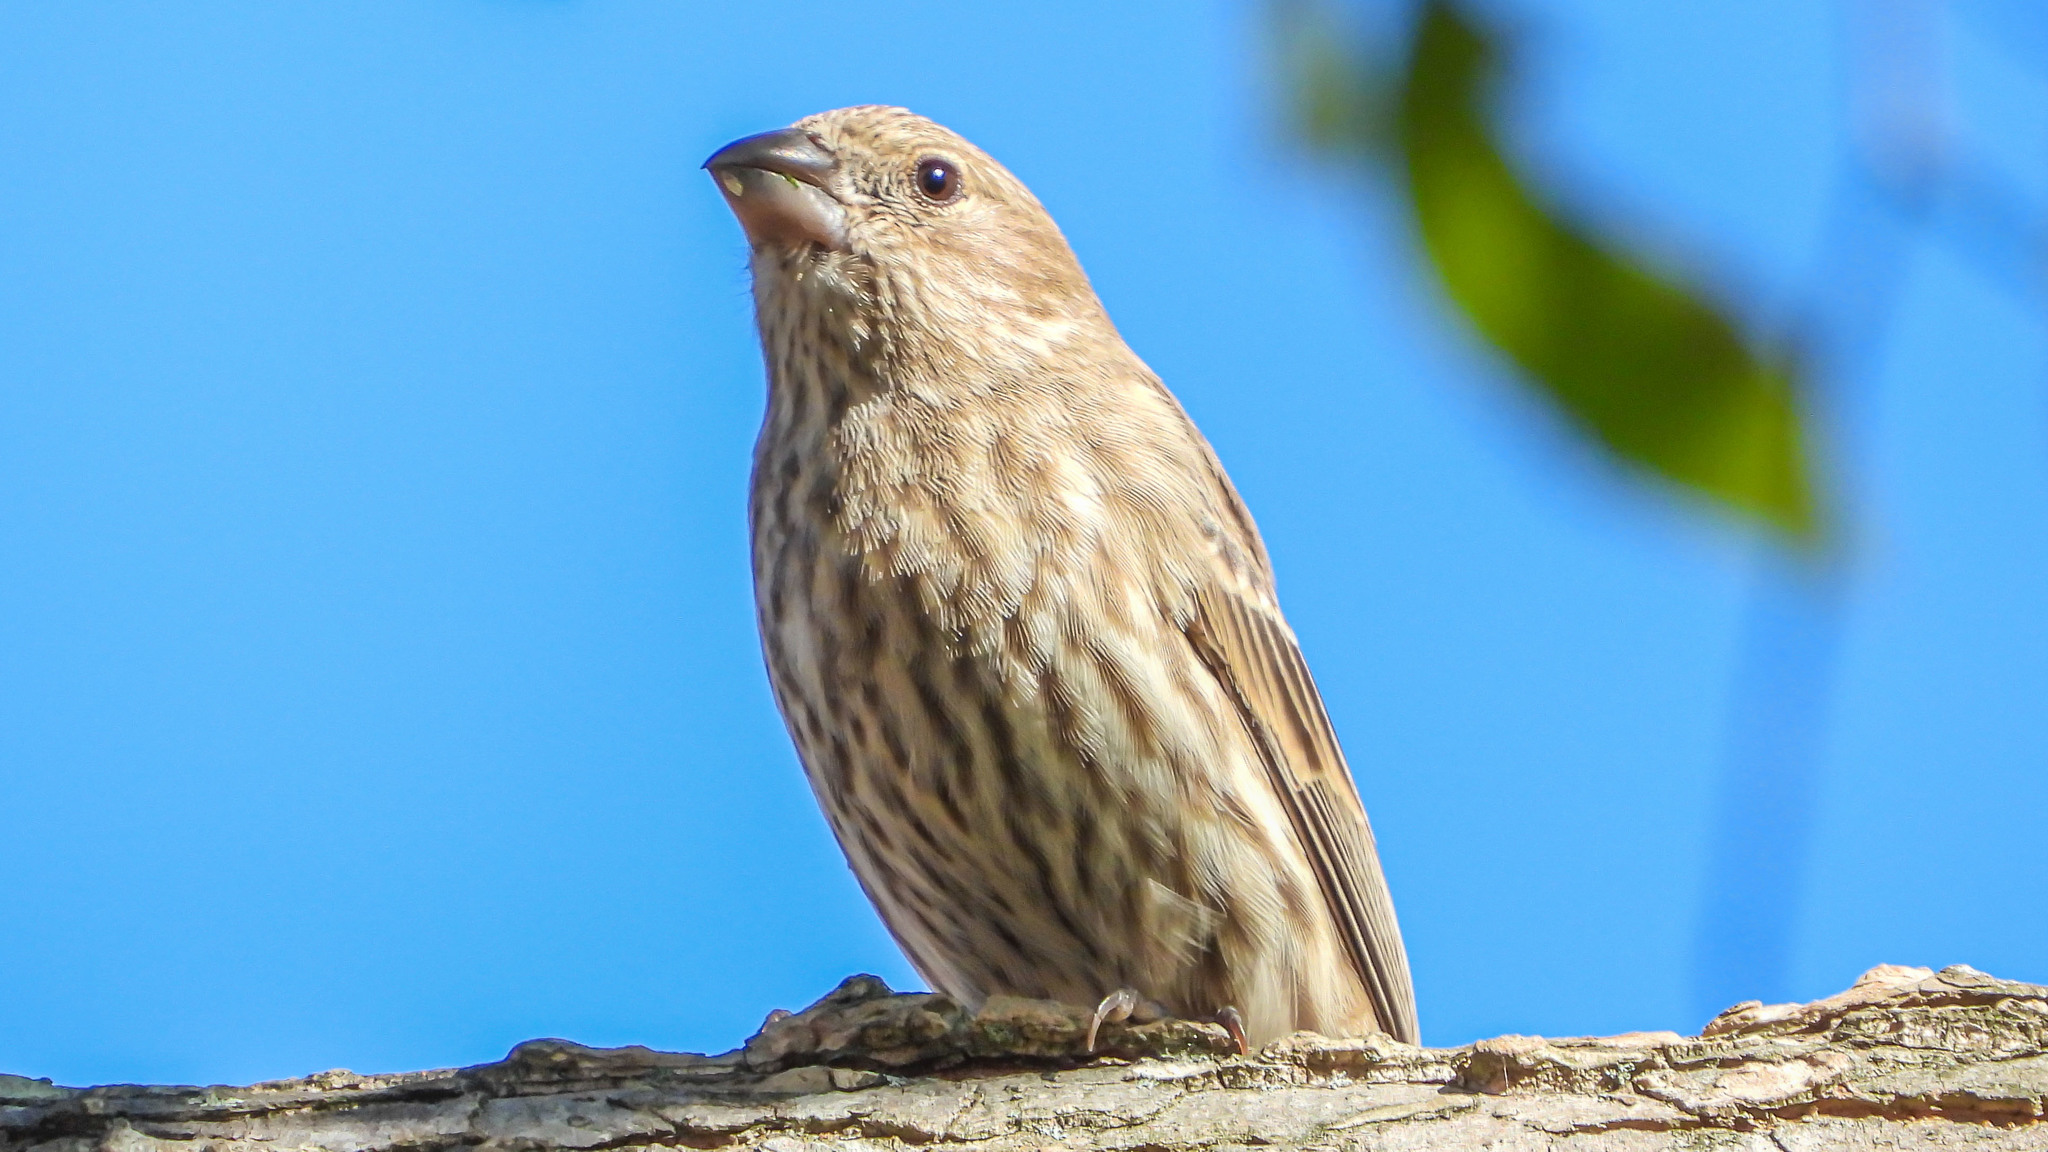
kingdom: Animalia
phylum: Chordata
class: Aves
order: Passeriformes
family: Fringillidae
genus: Haemorhous
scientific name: Haemorhous mexicanus
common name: House finch
